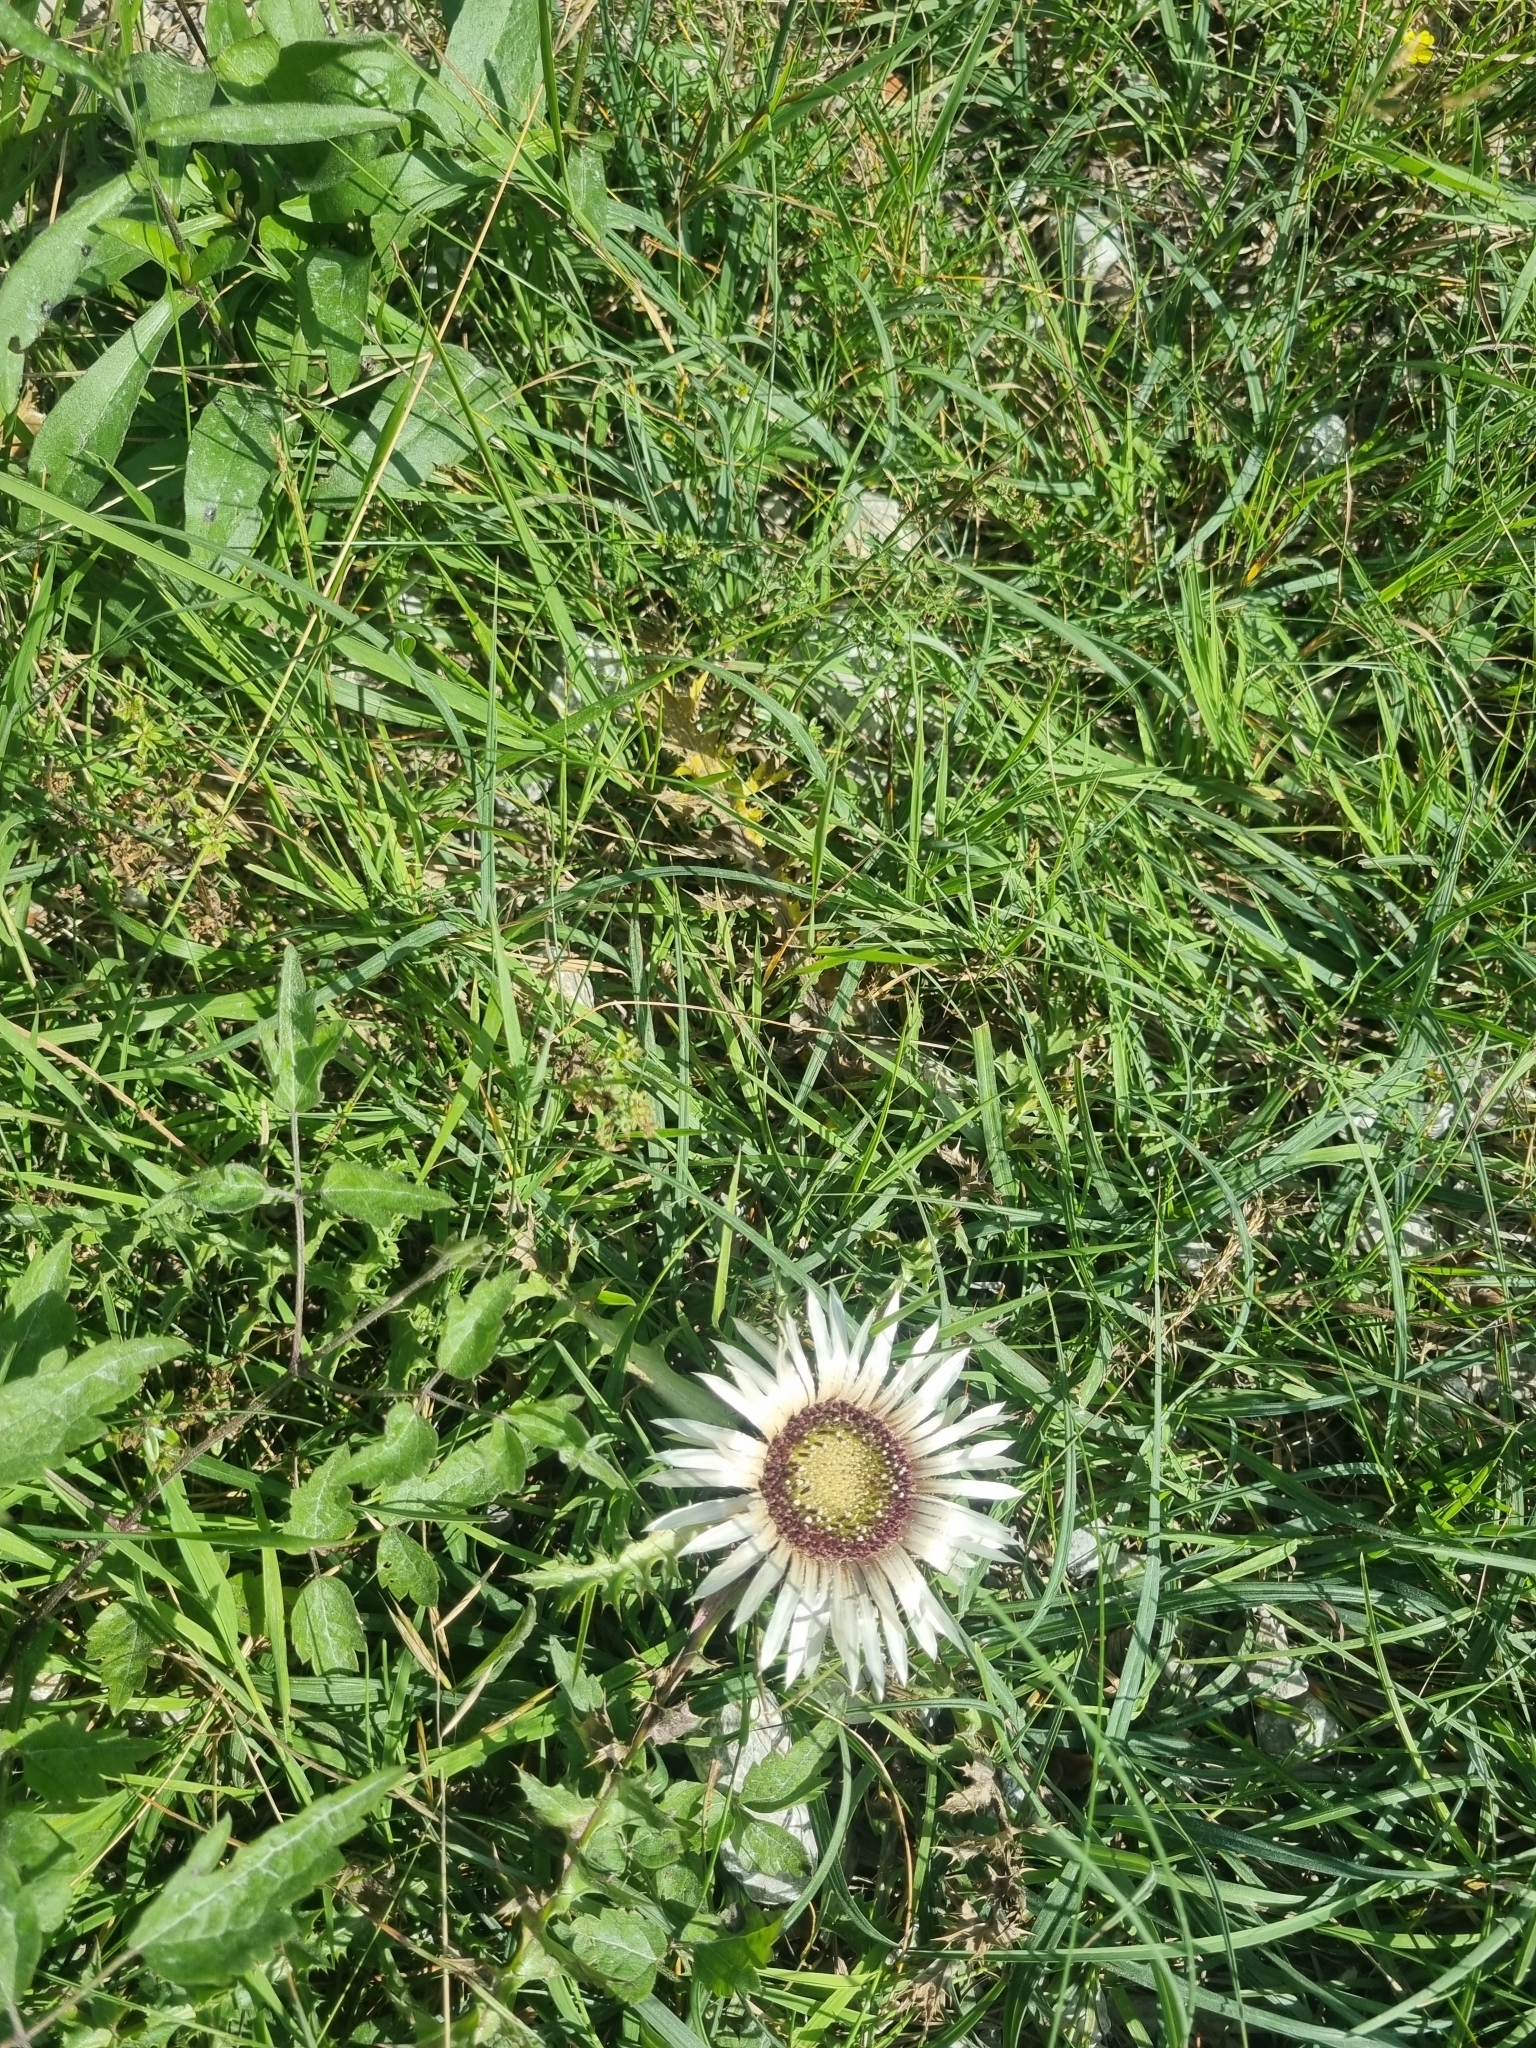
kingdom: Plantae
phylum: Tracheophyta
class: Magnoliopsida
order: Asterales
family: Asteraceae
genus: Carlina
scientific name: Carlina acaulis
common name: Stemless carline thistle
